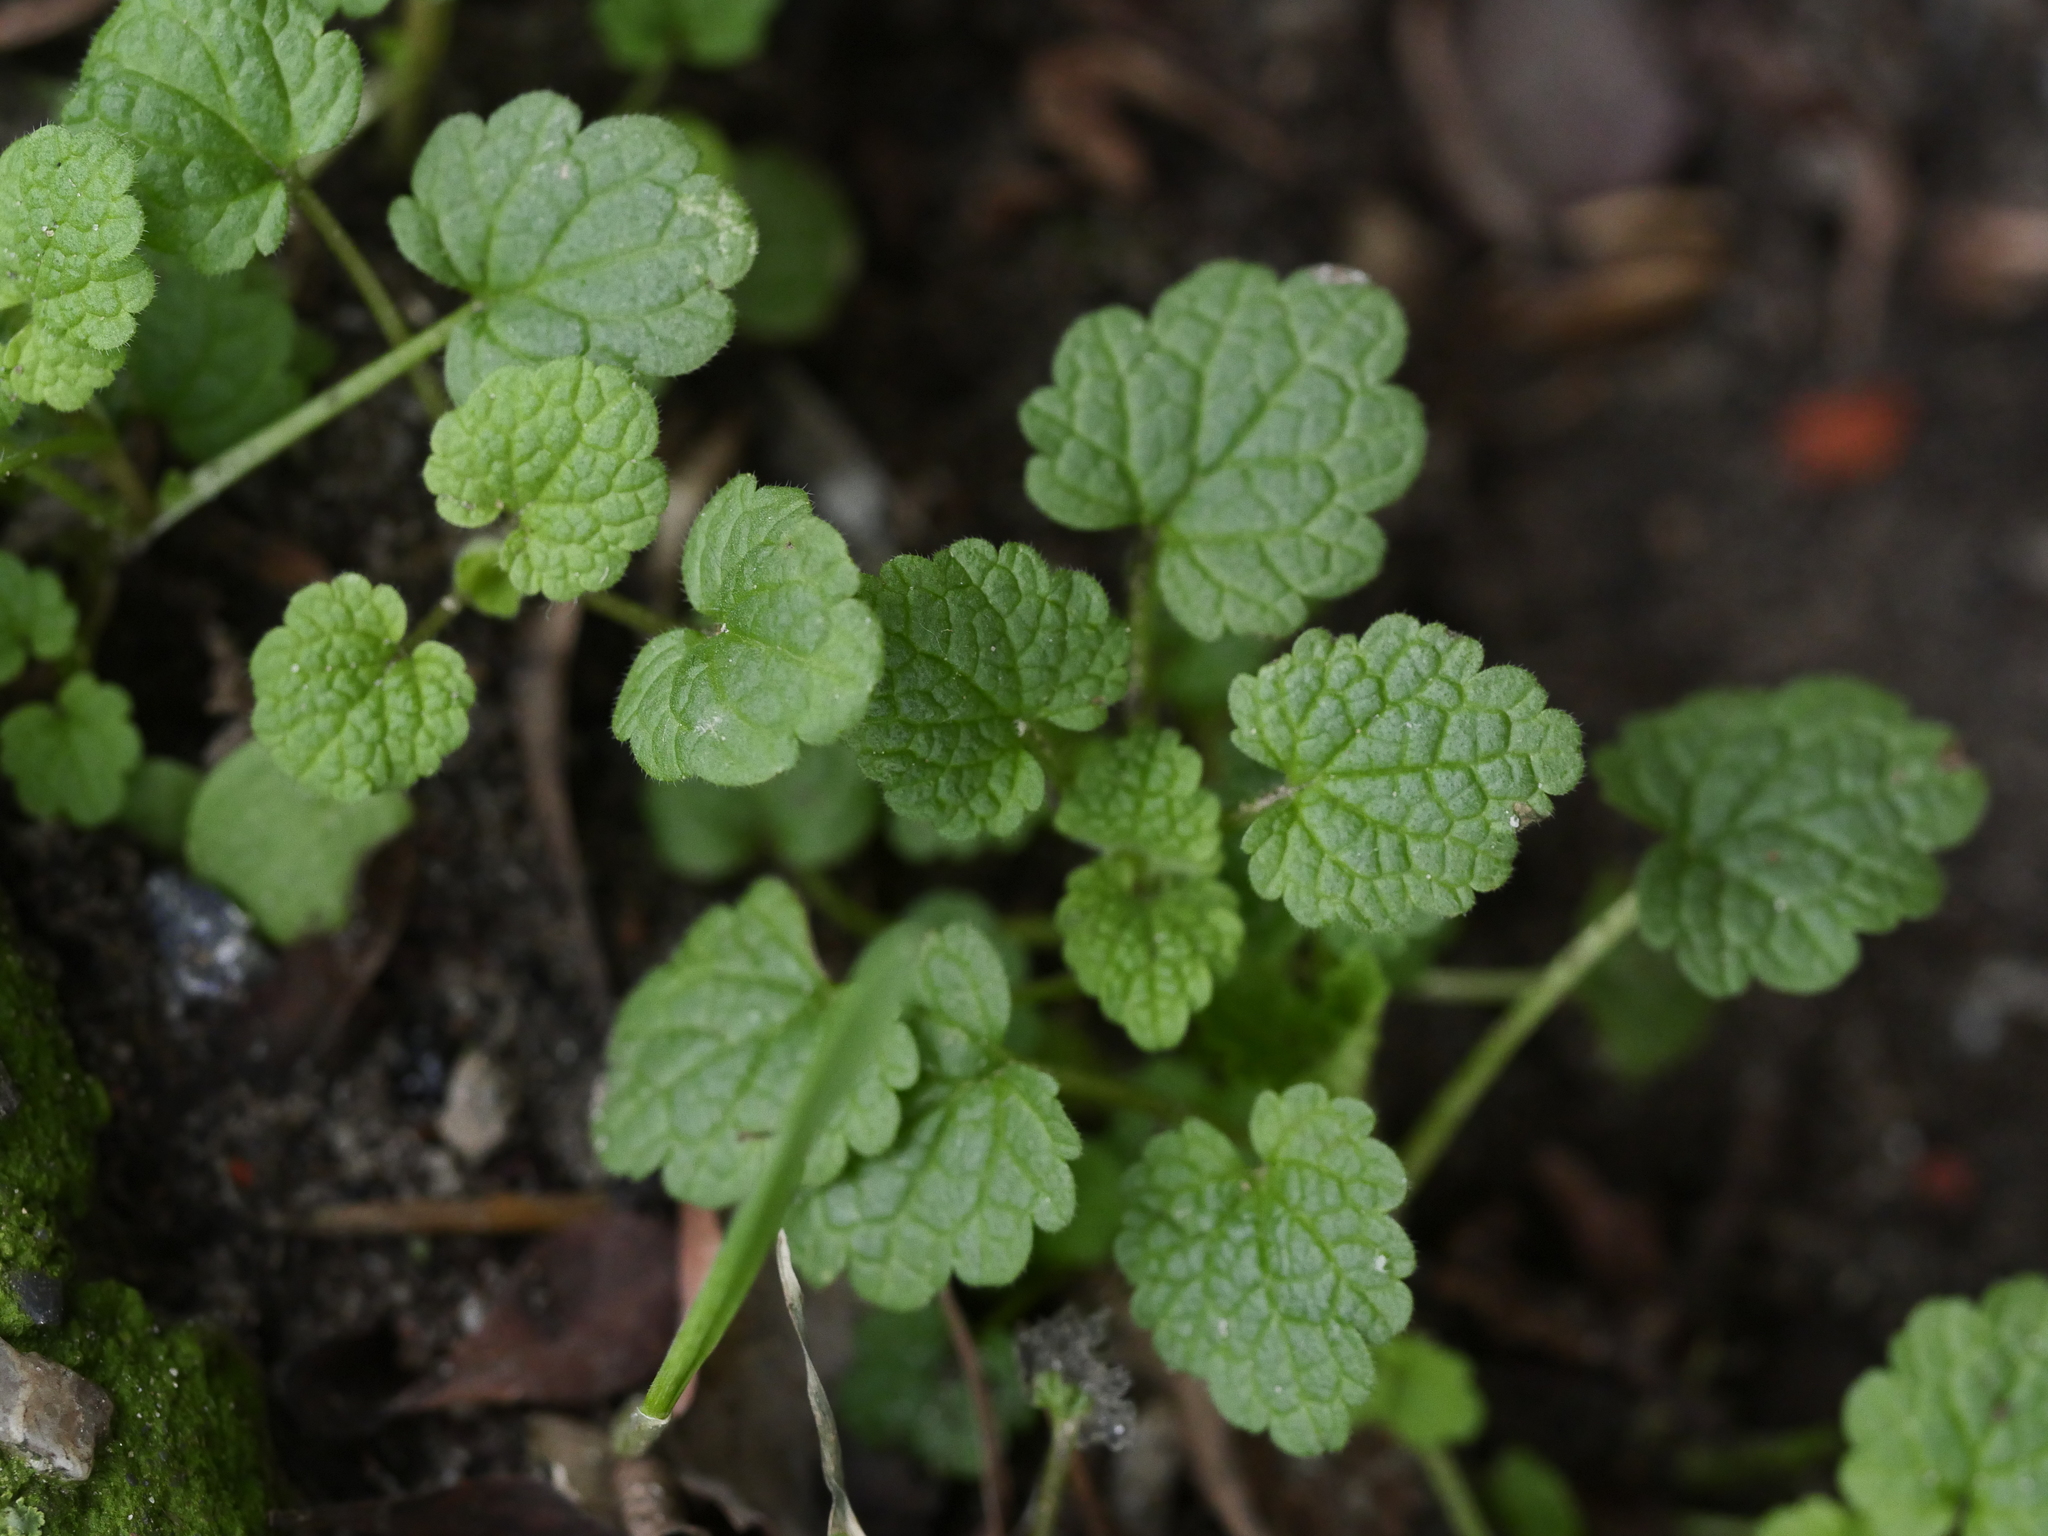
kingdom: Plantae
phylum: Tracheophyta
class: Magnoliopsida
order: Lamiales
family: Lamiaceae
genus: Lamium
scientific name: Lamium purpureum
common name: Red dead-nettle
